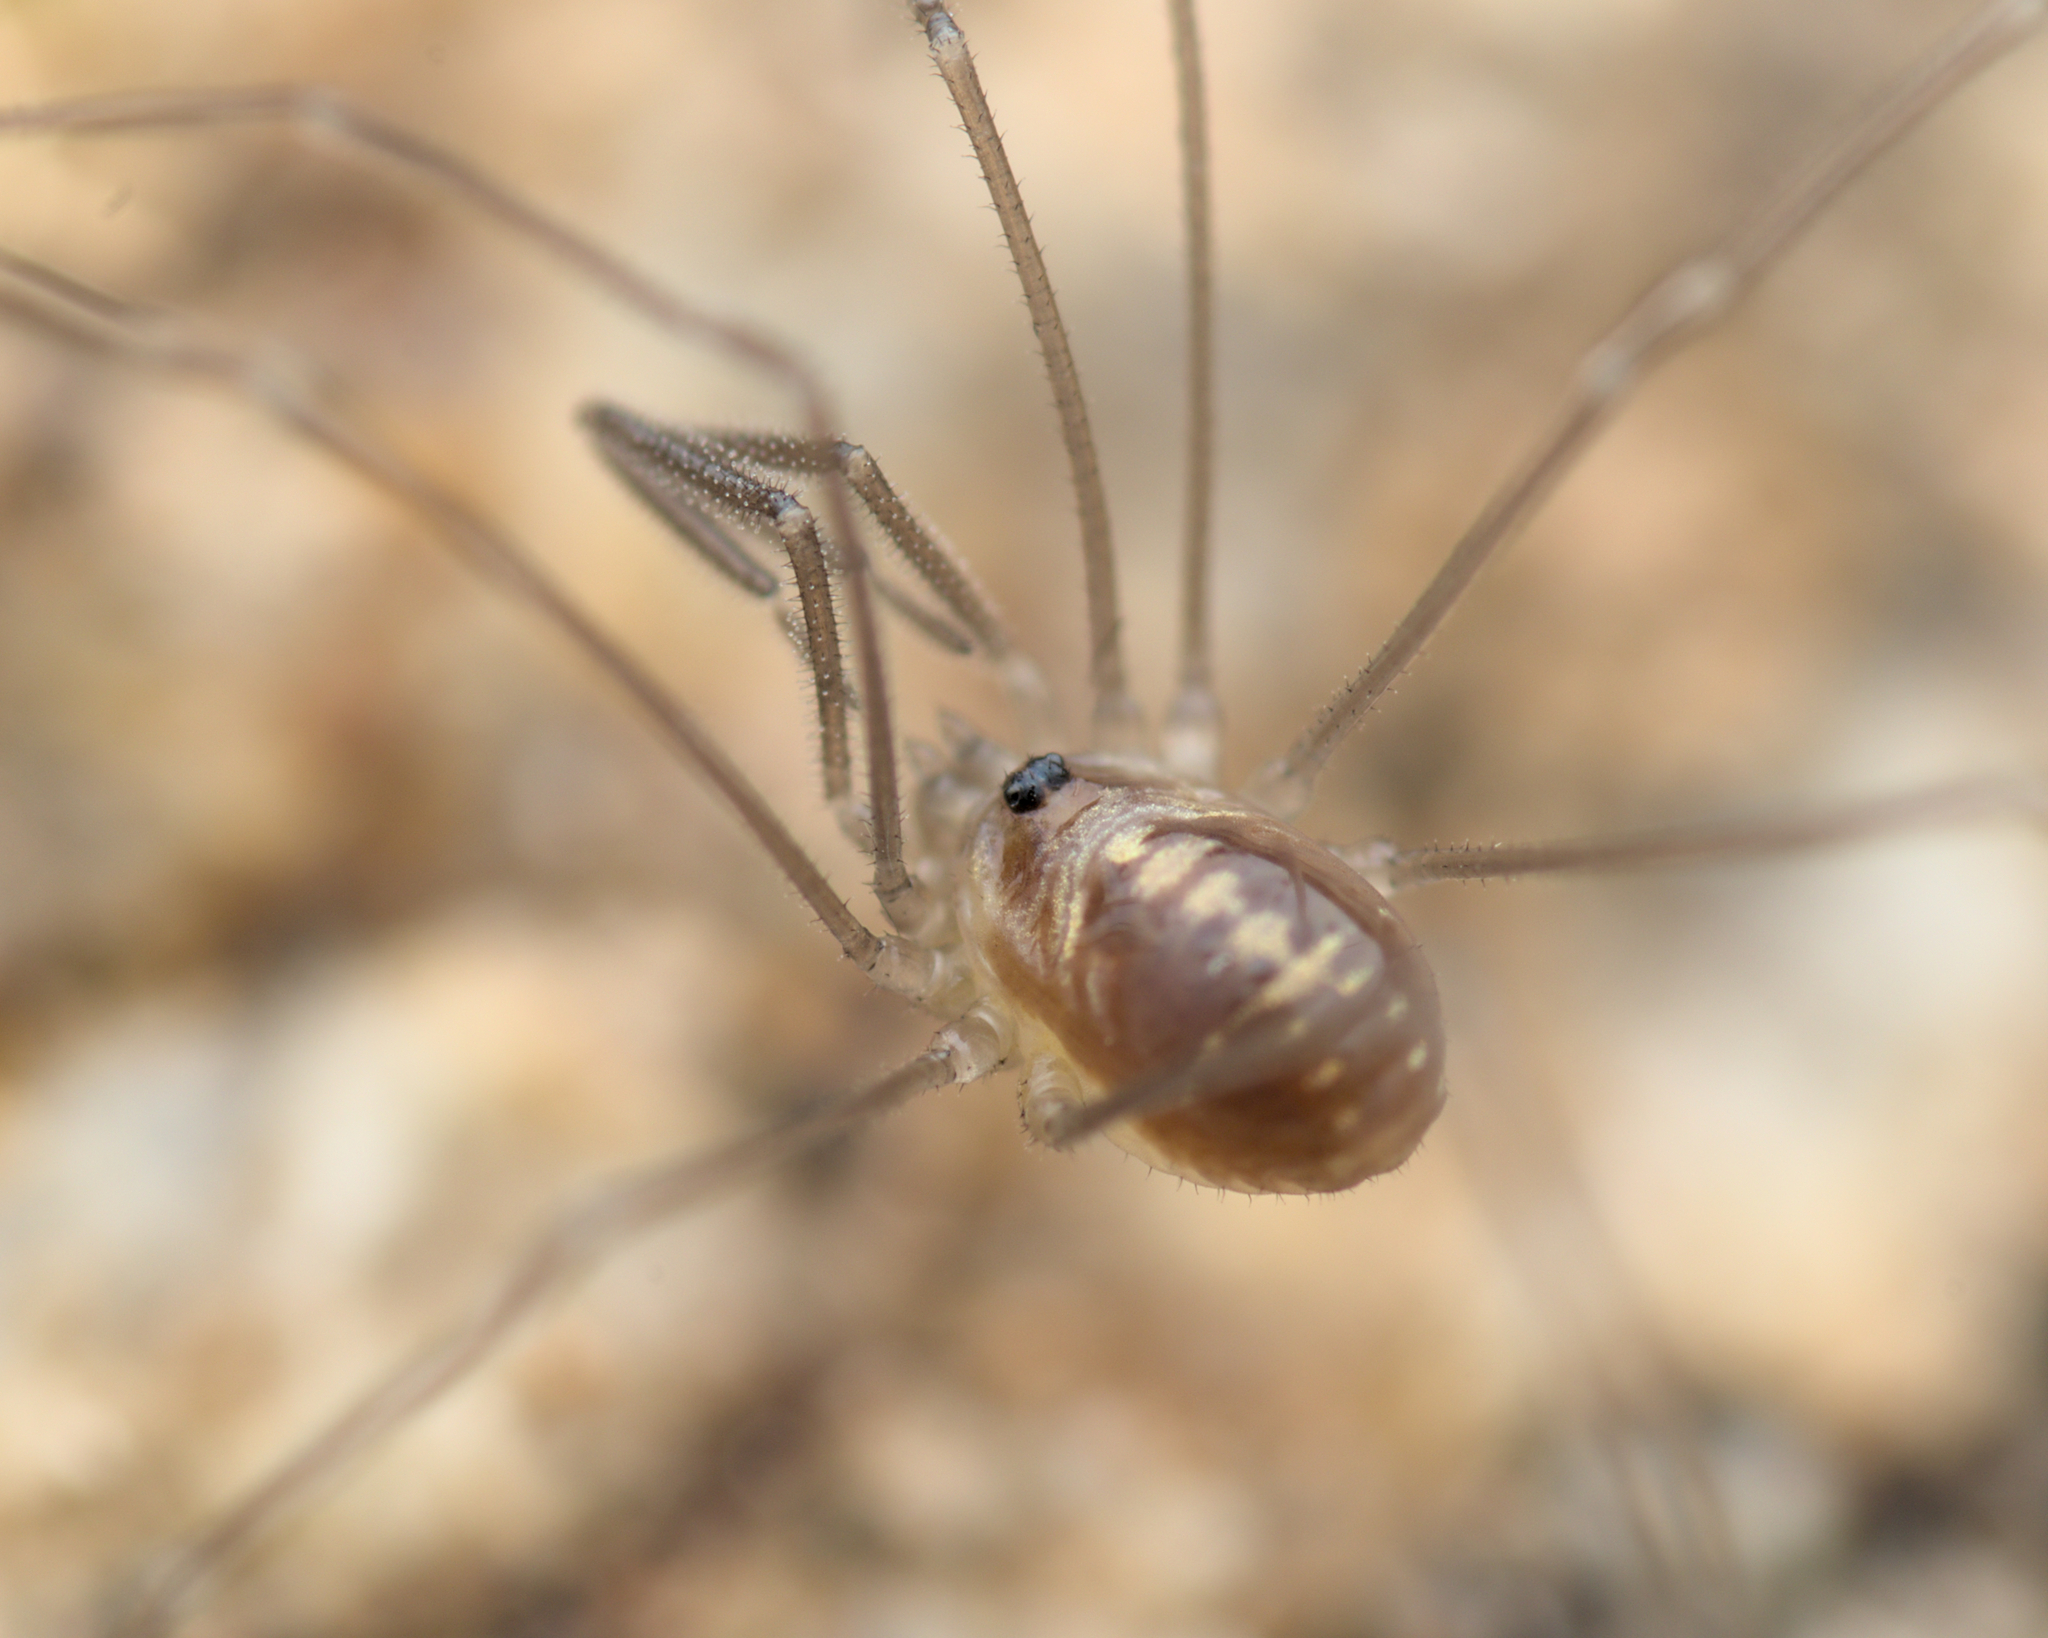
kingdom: Animalia
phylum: Arthropoda
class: Arachnida
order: Opiliones
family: Nemastomatidae
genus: Mitostoma
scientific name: Mitostoma pyrenaeum
